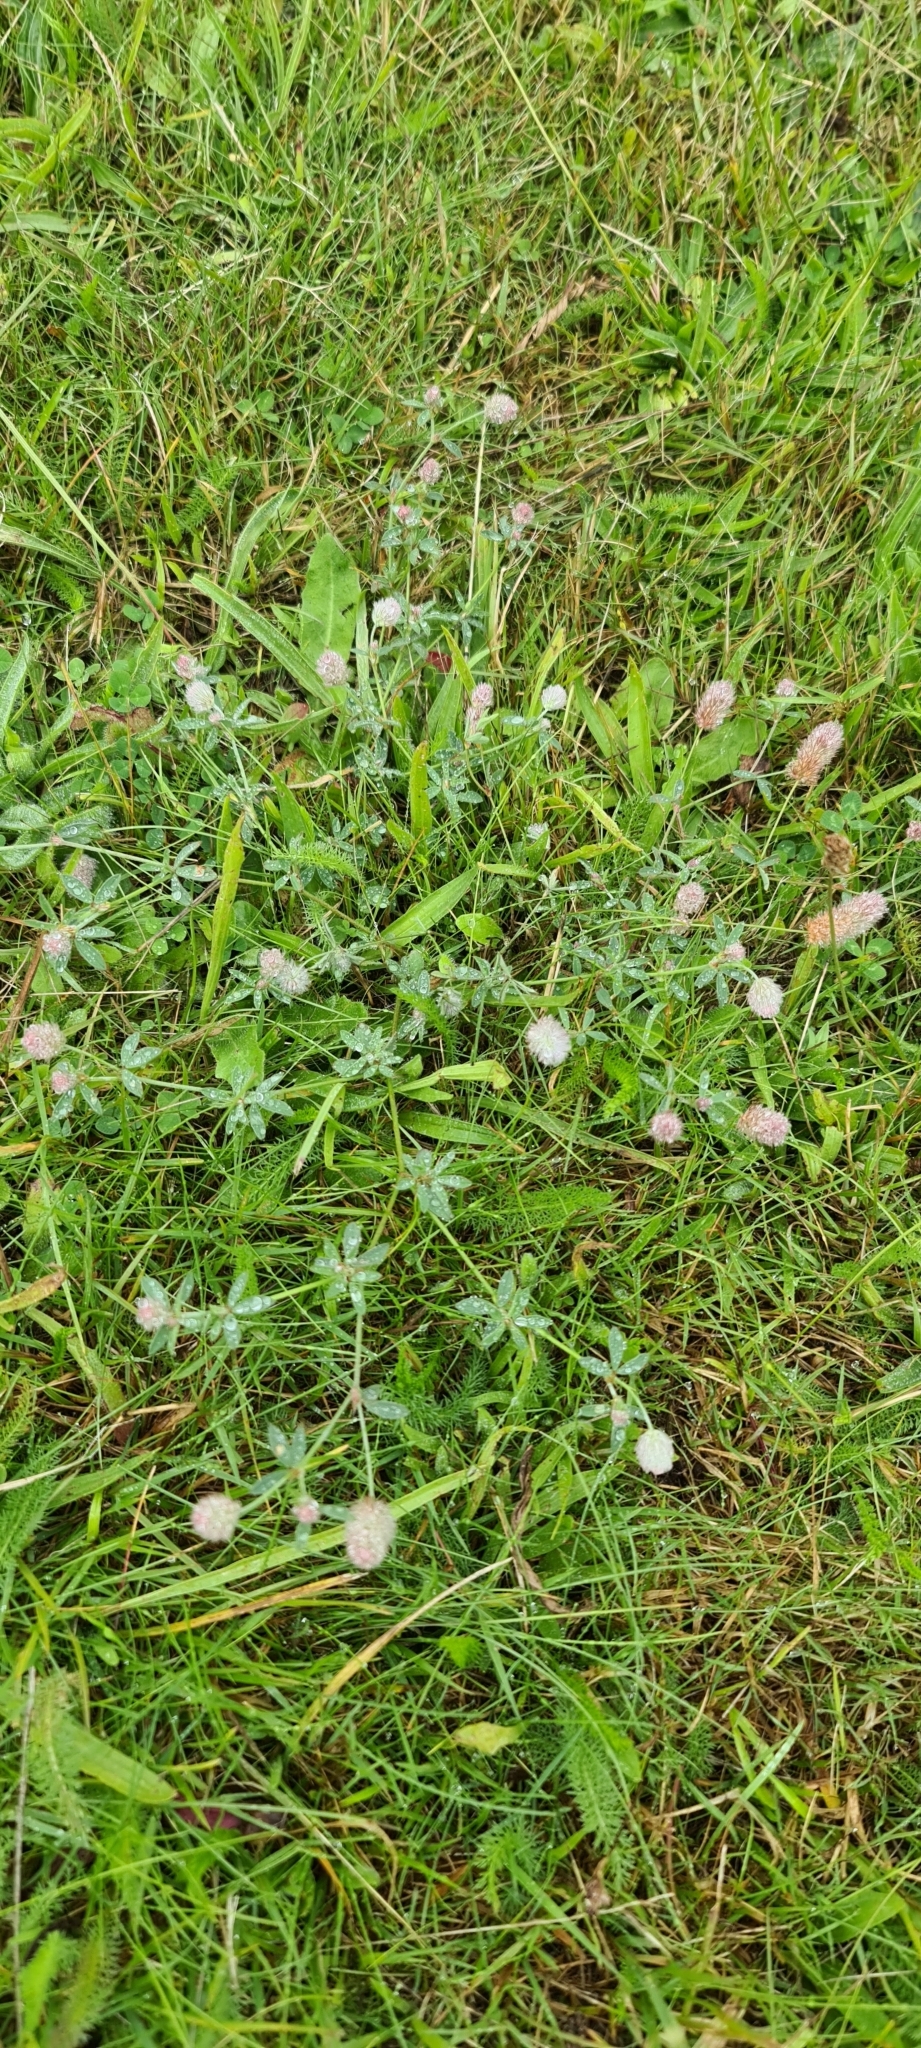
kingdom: Plantae
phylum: Tracheophyta
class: Magnoliopsida
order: Fabales
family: Fabaceae
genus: Trifolium
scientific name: Trifolium arvense
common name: Hare's-foot clover
